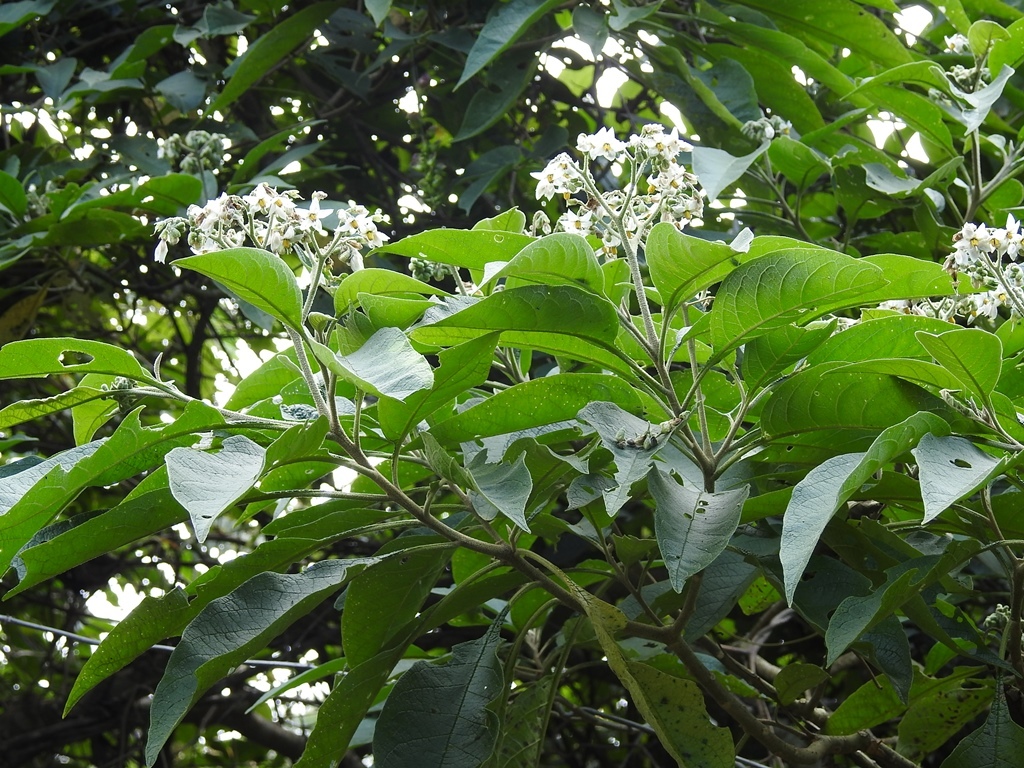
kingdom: Plantae
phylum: Tracheophyta
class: Magnoliopsida
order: Solanales
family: Solanaceae
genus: Solanum
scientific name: Solanum umbellatum
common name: Nightshade
